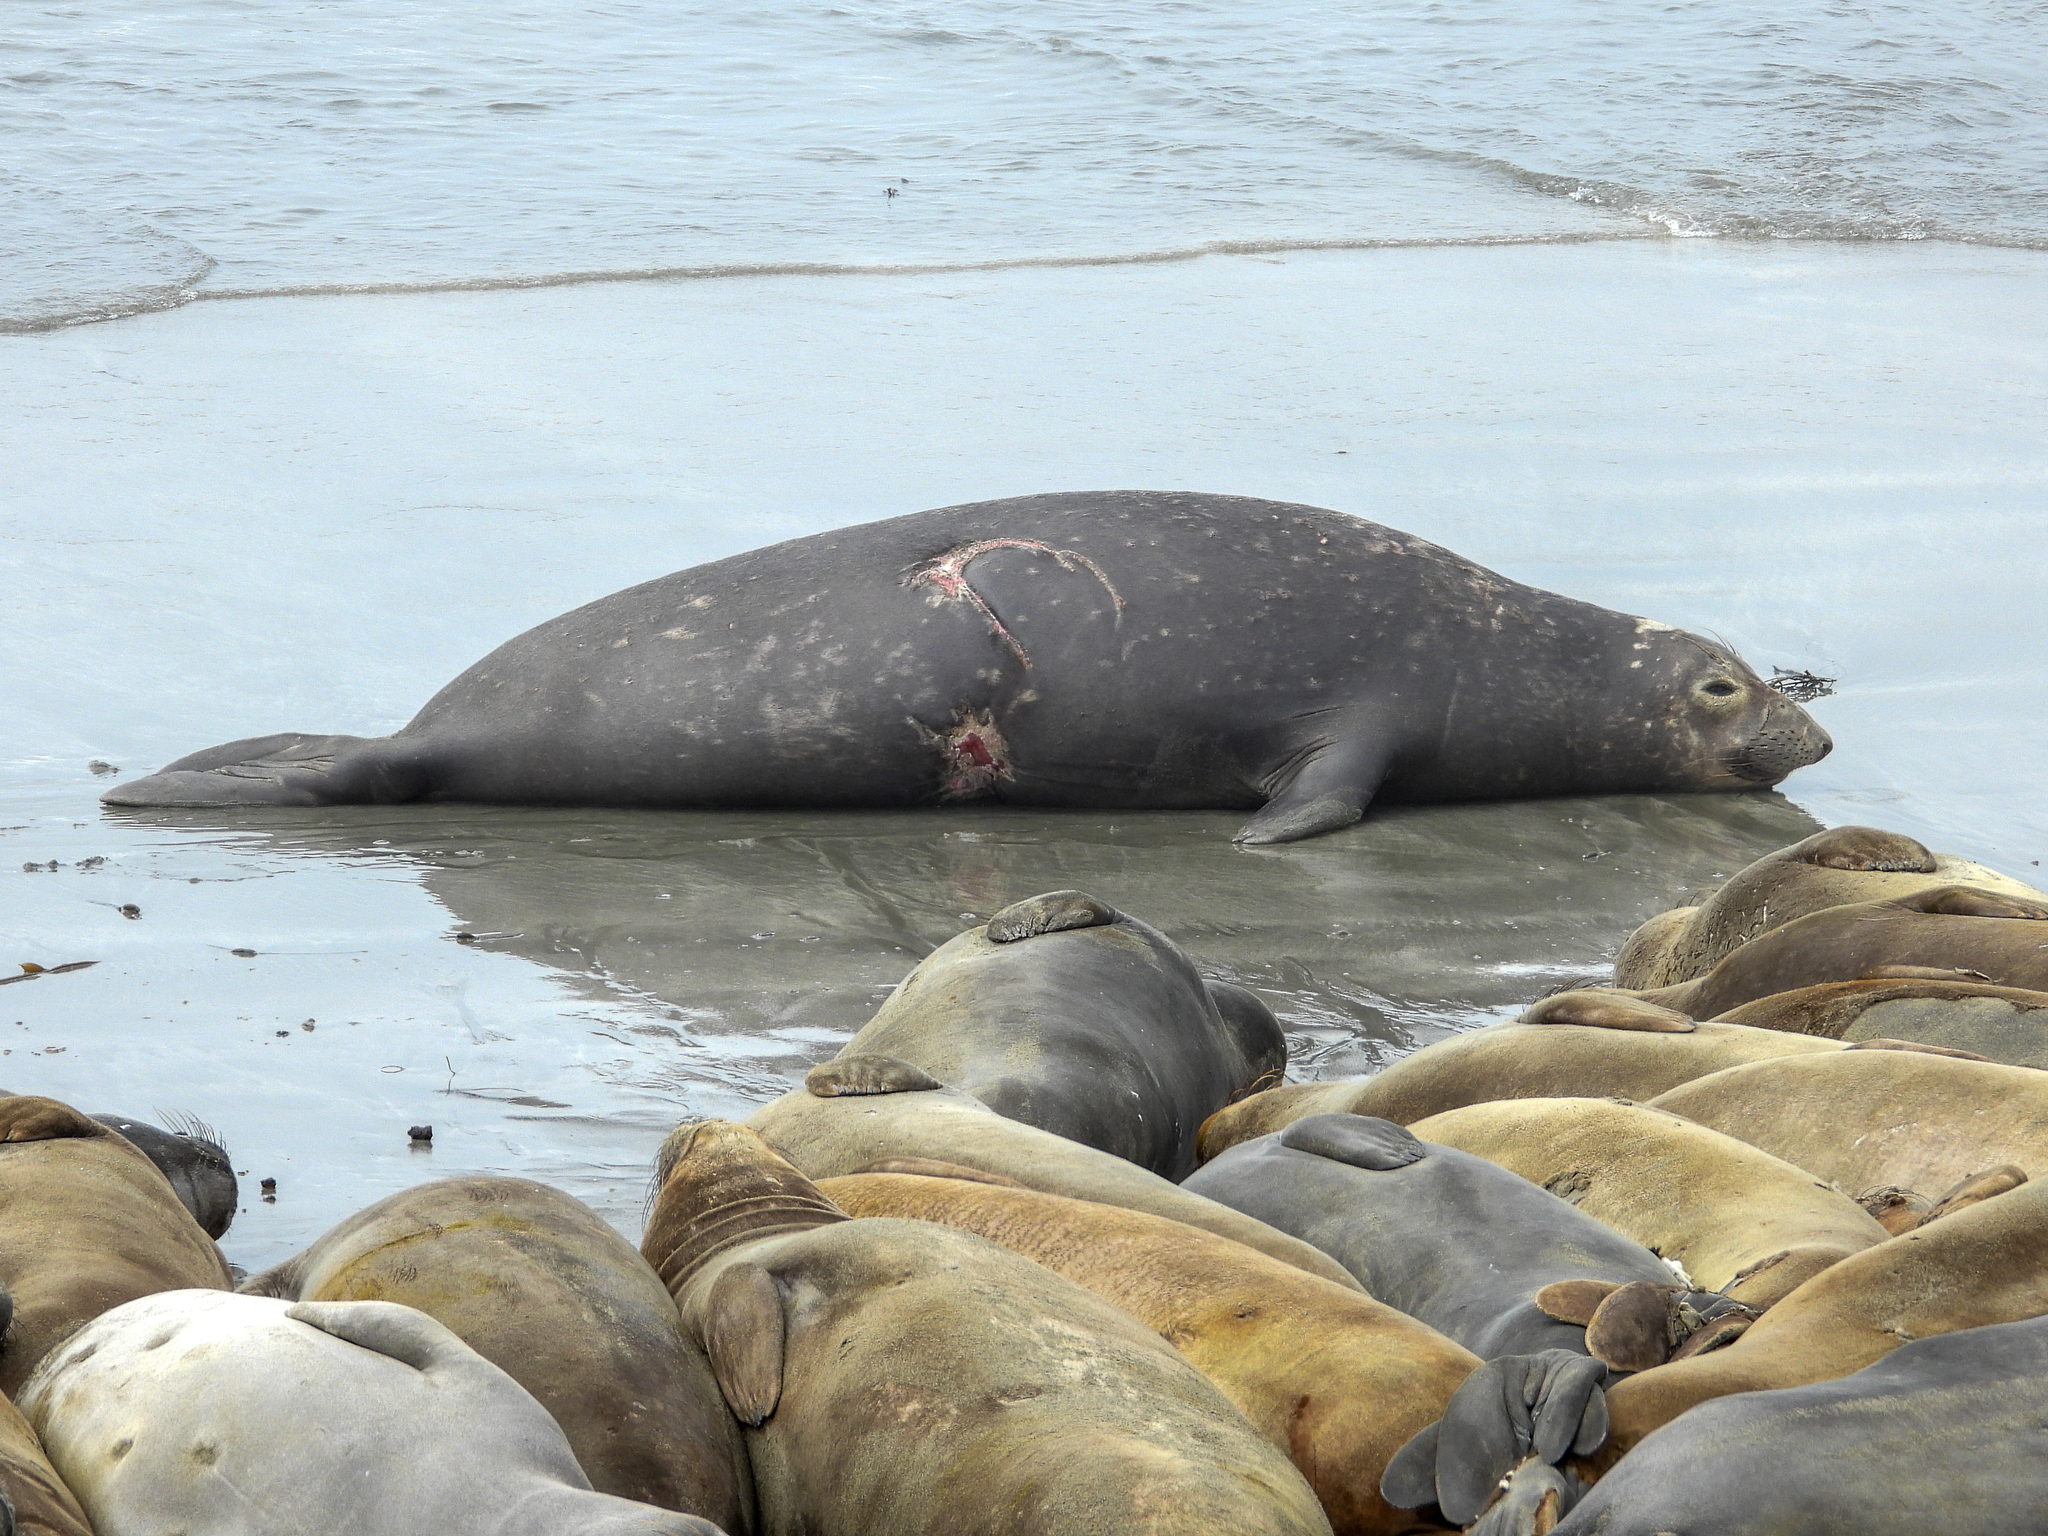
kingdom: Animalia
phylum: Chordata
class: Mammalia
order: Carnivora
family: Phocidae
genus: Mirounga
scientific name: Mirounga angustirostris
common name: Northern elephant seal
